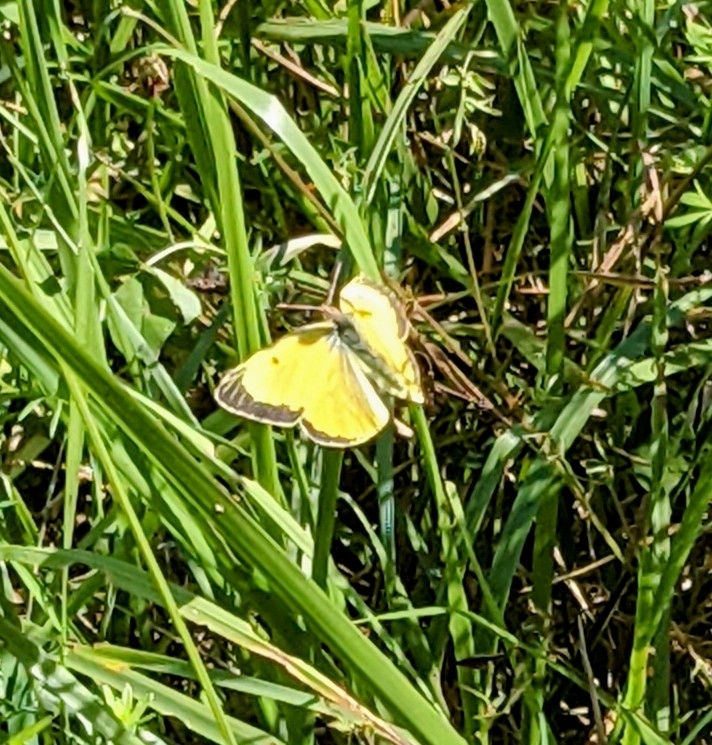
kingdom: Animalia
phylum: Arthropoda
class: Insecta
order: Lepidoptera
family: Pieridae
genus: Colias
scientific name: Colias eurytheme
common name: Alfalfa butterfly
